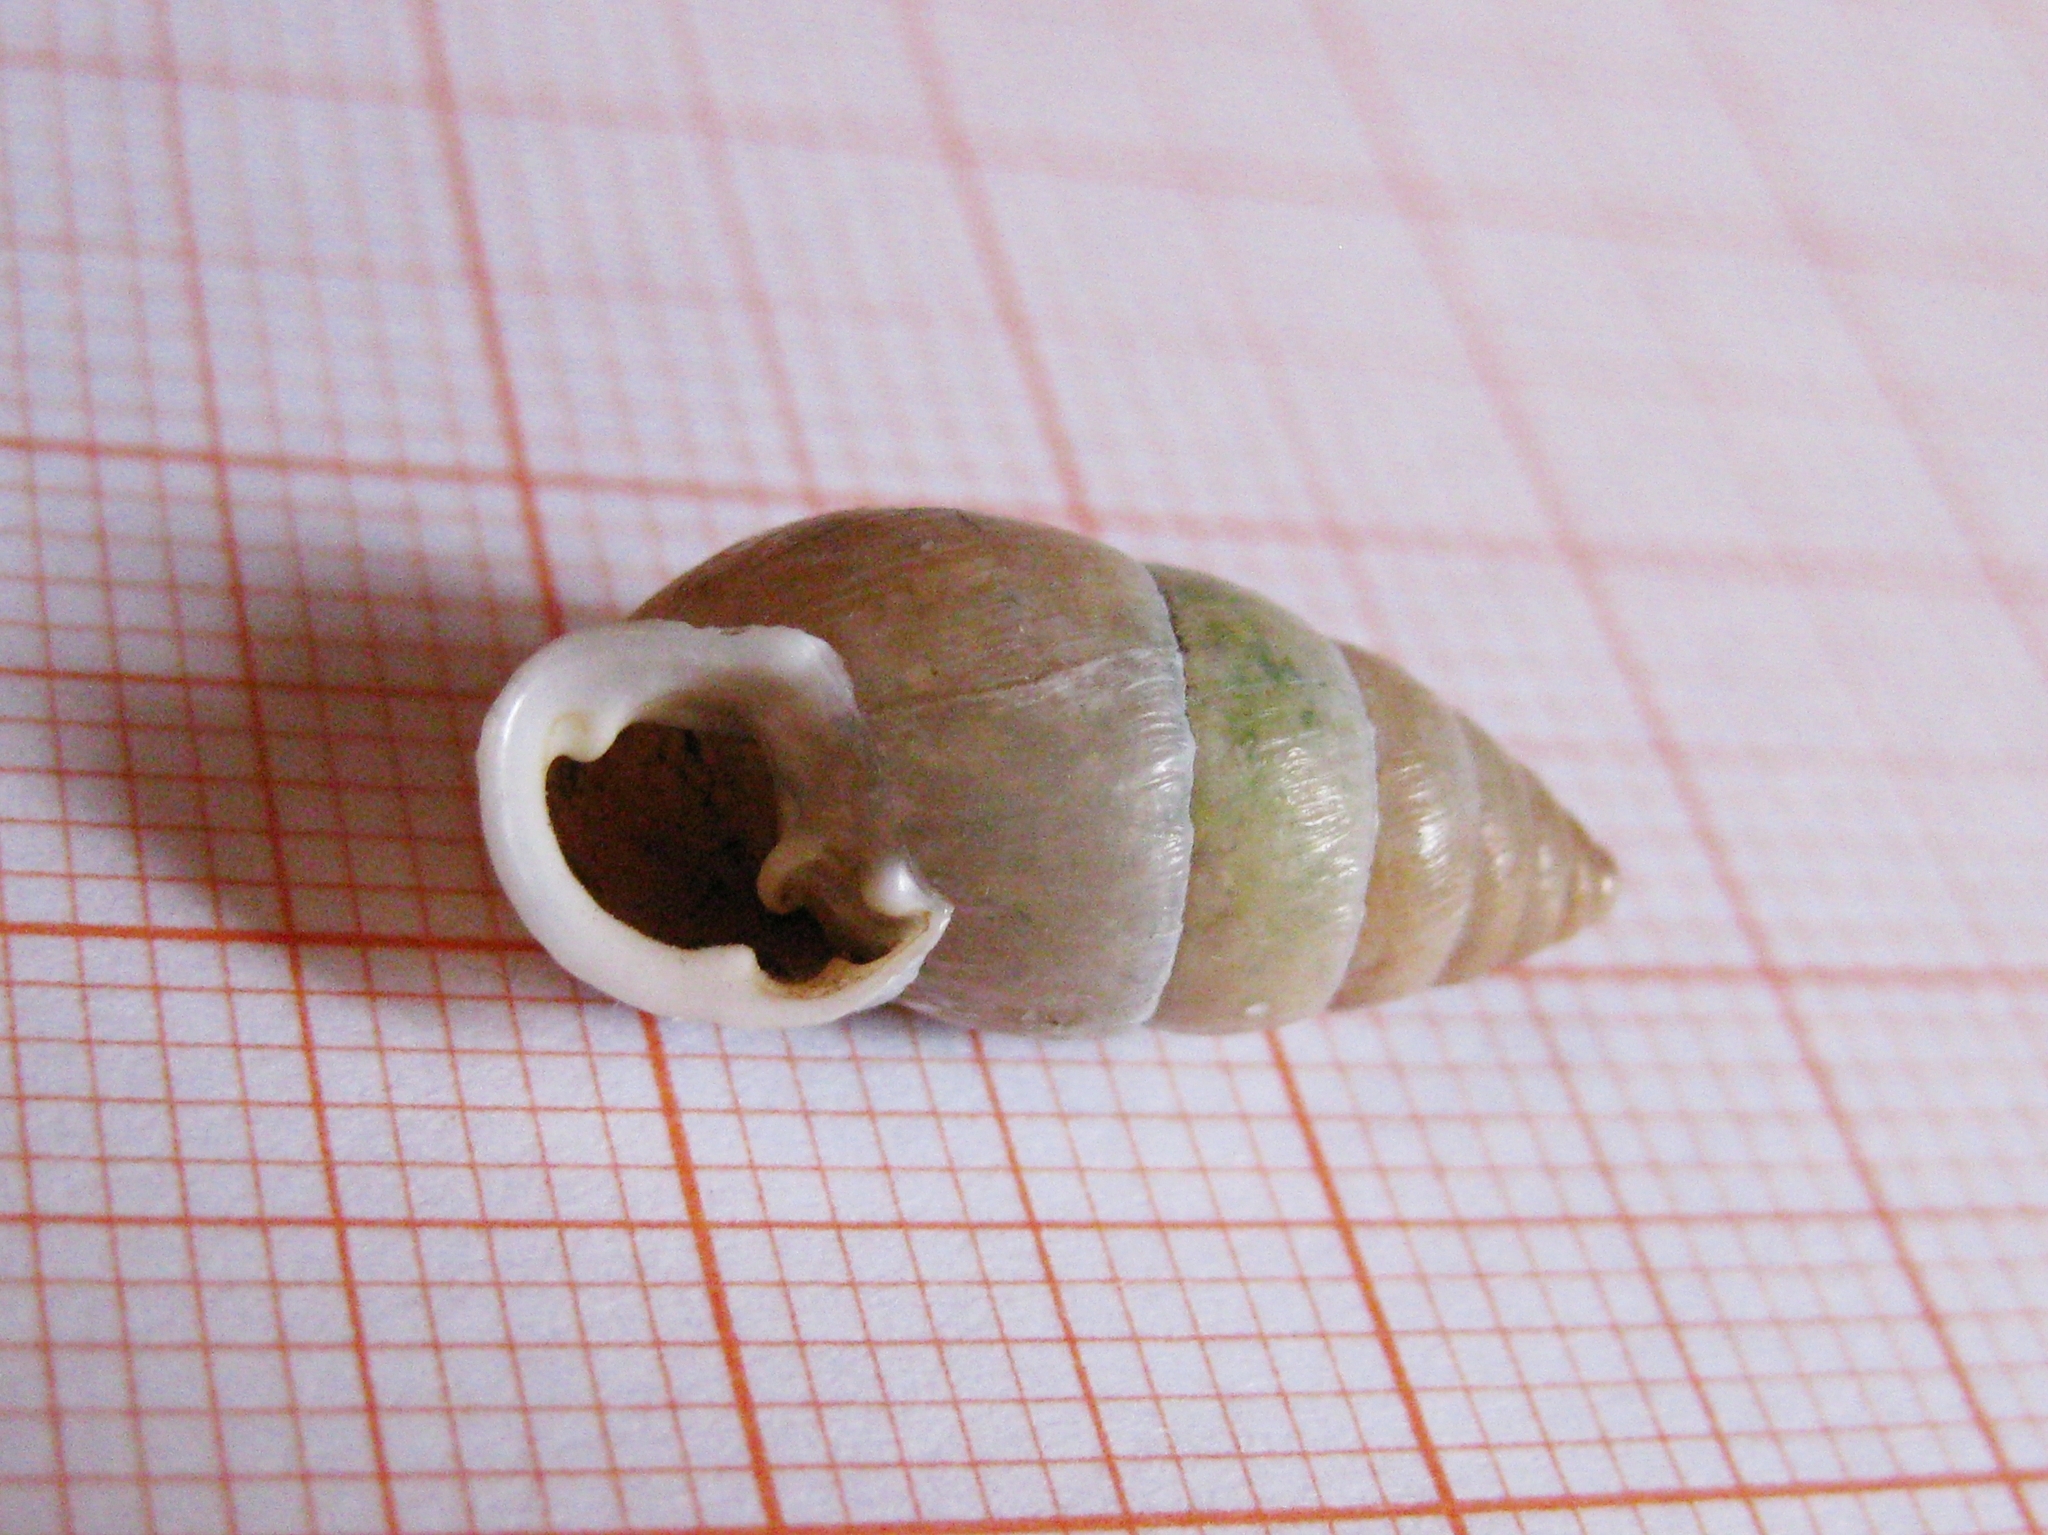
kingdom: Animalia
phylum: Mollusca
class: Gastropoda
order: Stylommatophora
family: Enidae
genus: Chondrula
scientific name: Chondrula tridens
